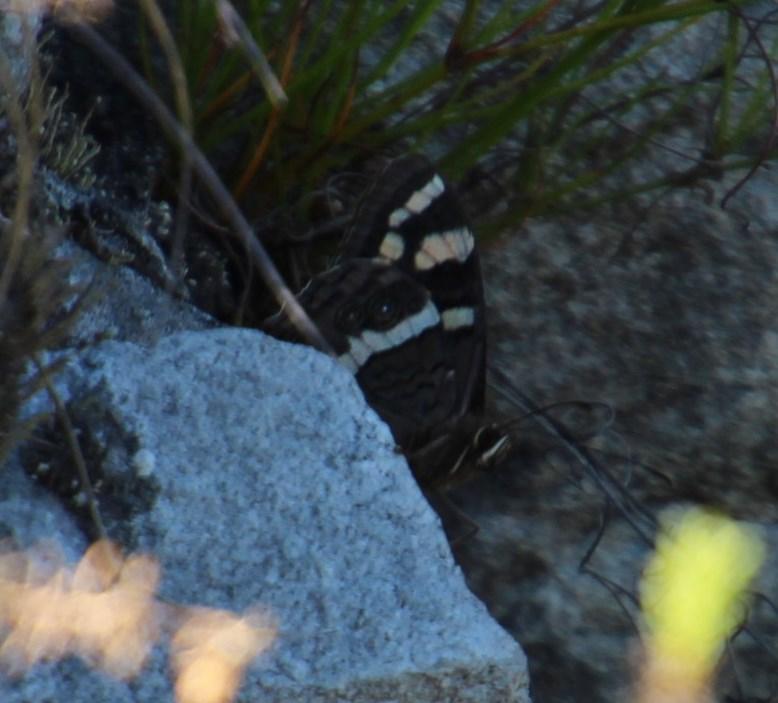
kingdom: Animalia
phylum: Arthropoda
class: Insecta
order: Lepidoptera
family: Nymphalidae
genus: Meneris
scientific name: Meneris Aeropetes tulbaghia
